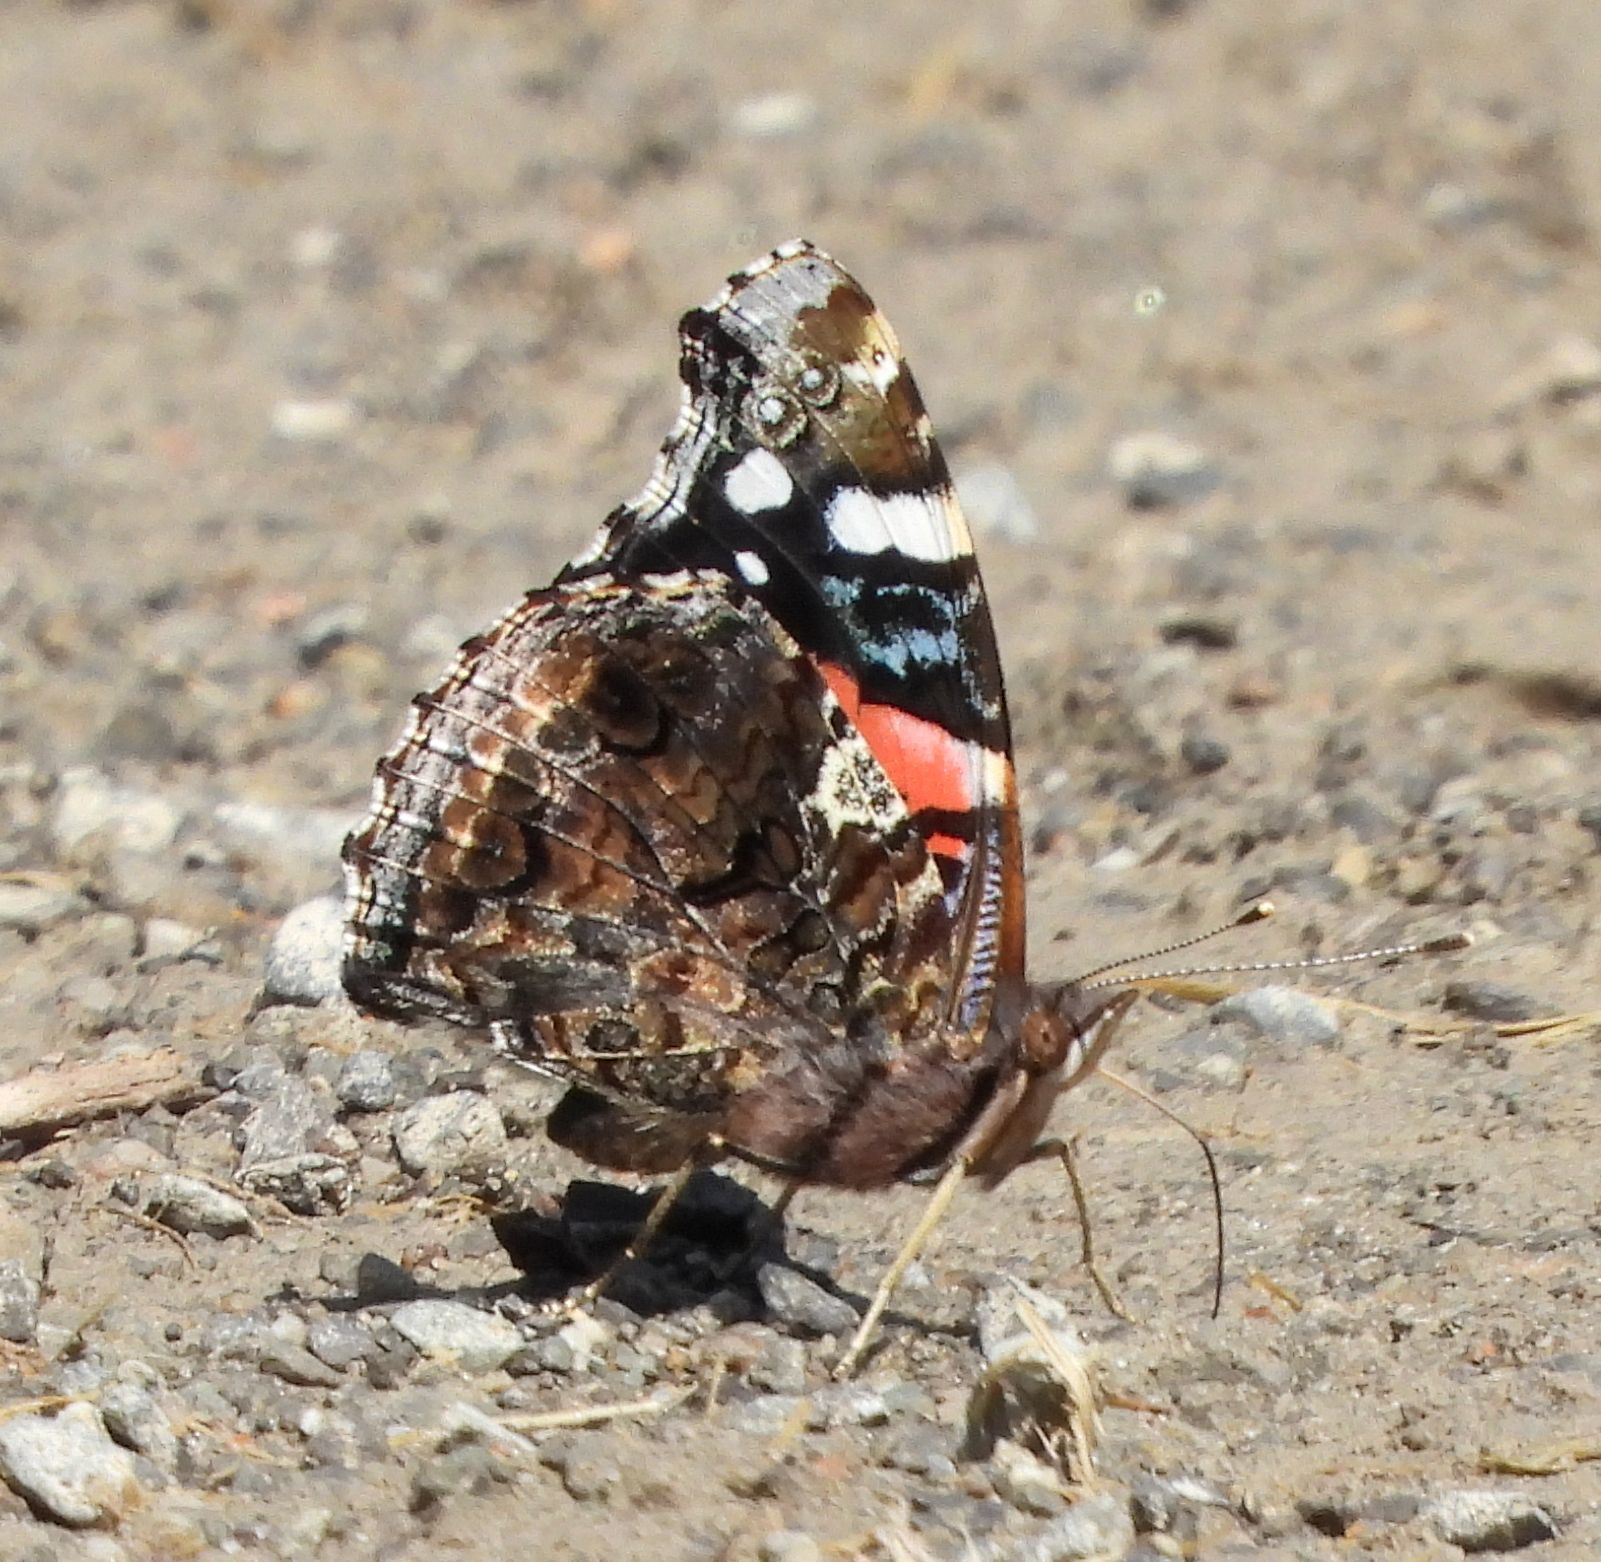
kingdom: Animalia
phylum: Arthropoda
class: Insecta
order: Lepidoptera
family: Nymphalidae
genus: Vanessa
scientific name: Vanessa atalanta
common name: Red admiral
